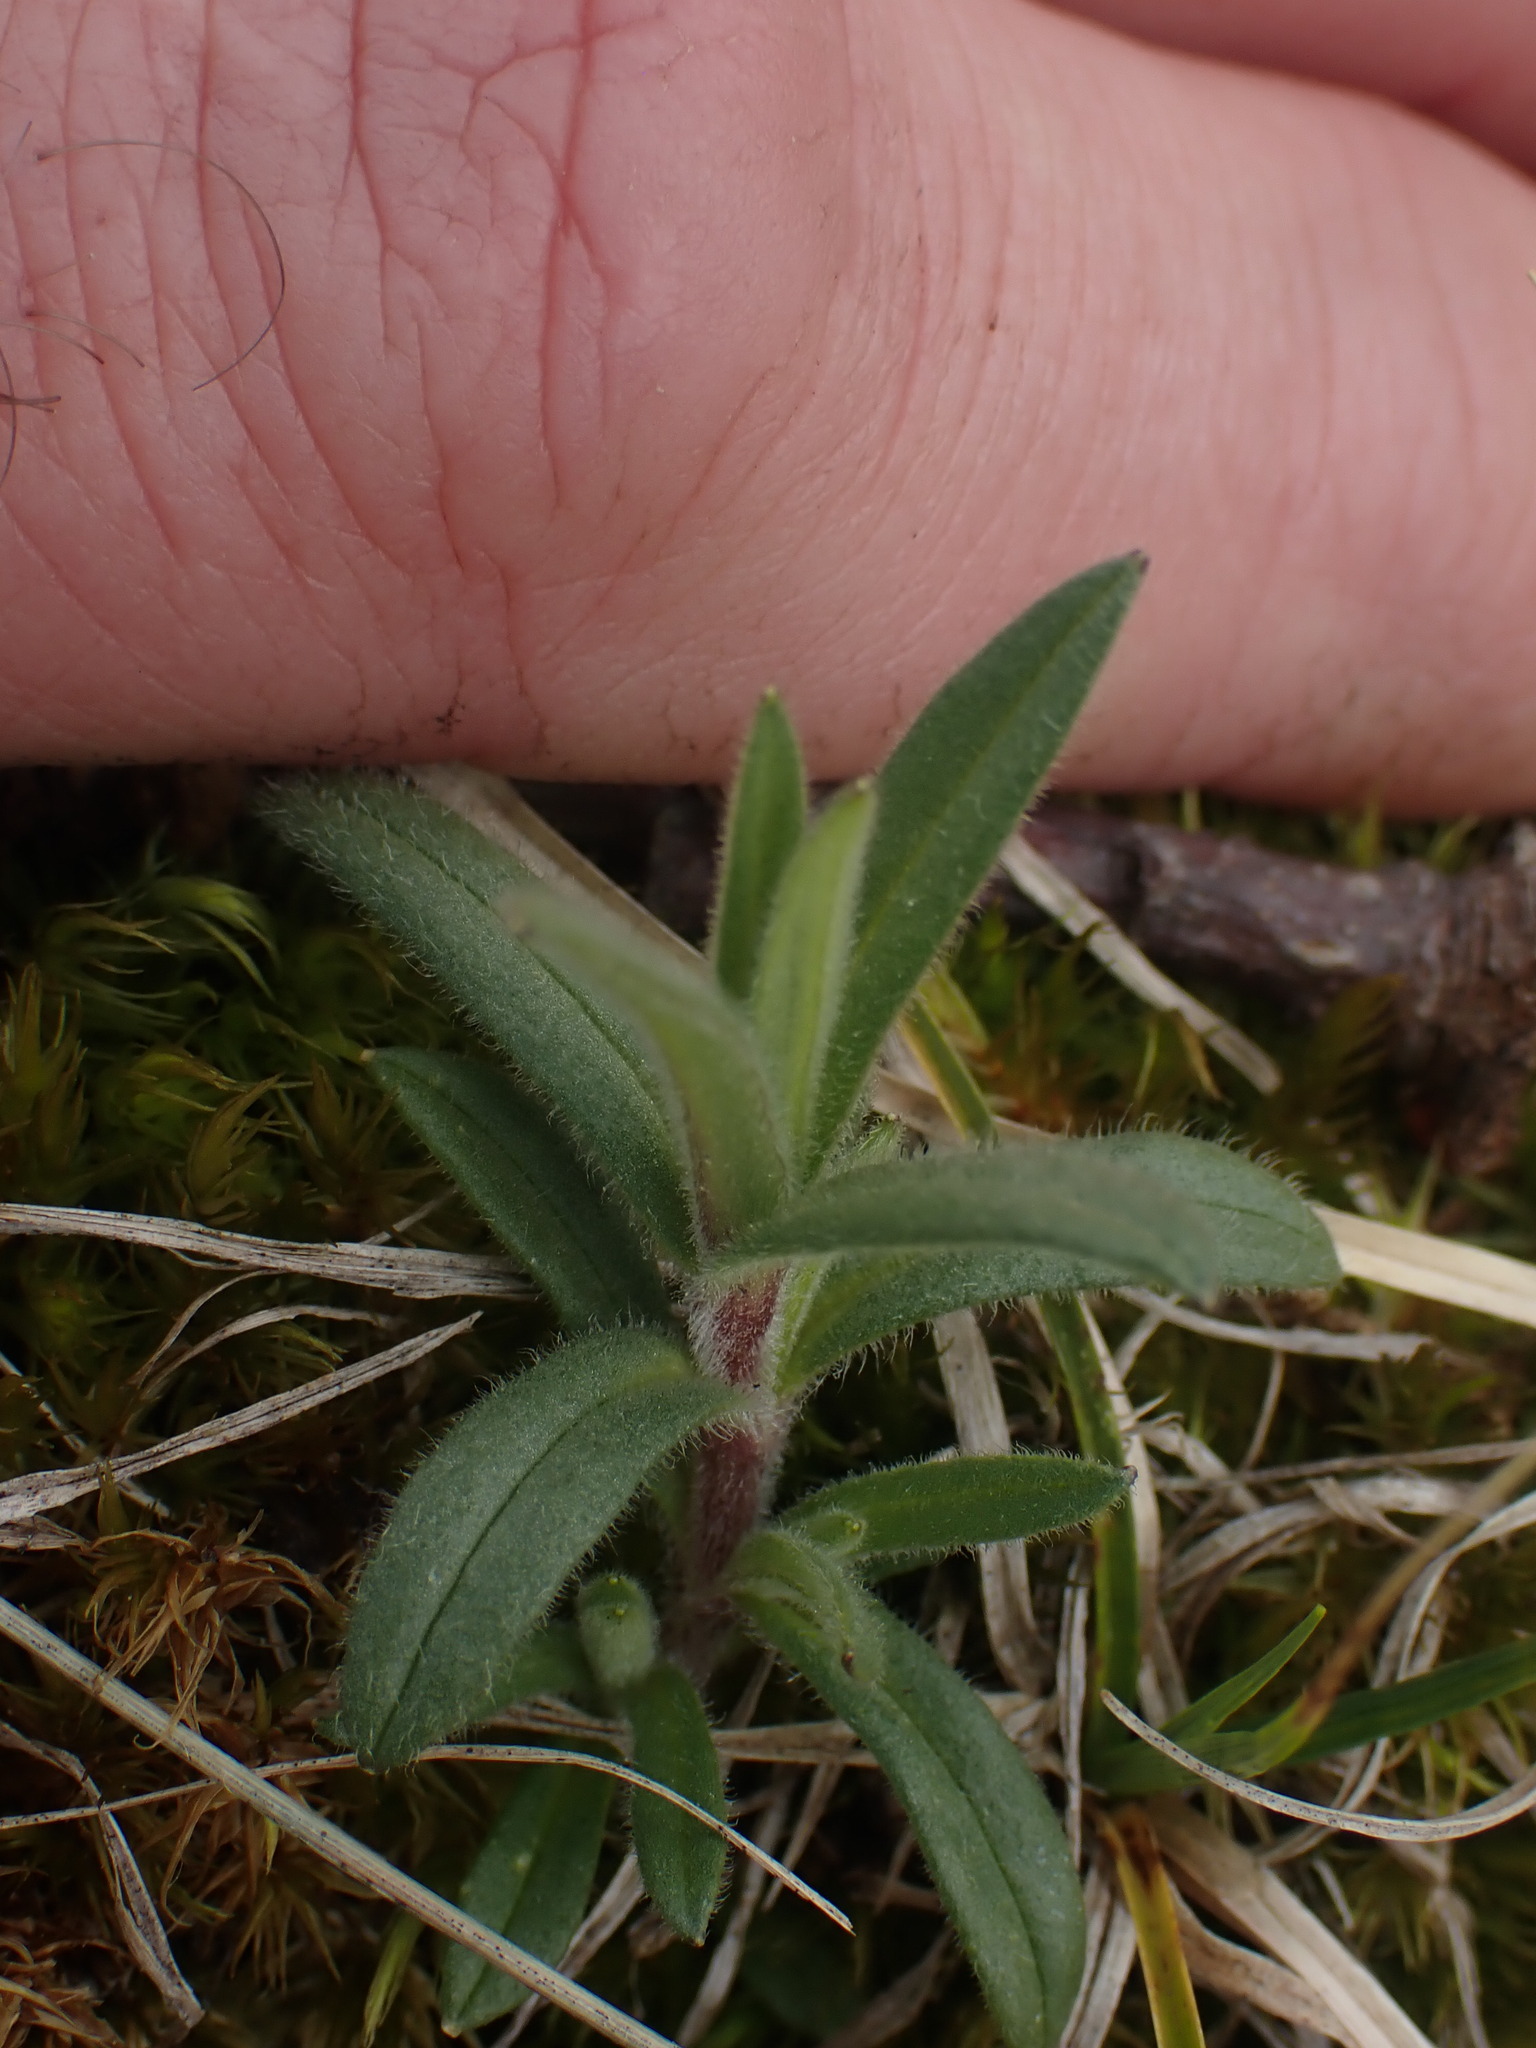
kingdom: Plantae
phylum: Tracheophyta
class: Magnoliopsida
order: Caryophyllales
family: Caryophyllaceae
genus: Cerastium
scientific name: Cerastium arvense
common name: Field mouse-ear
